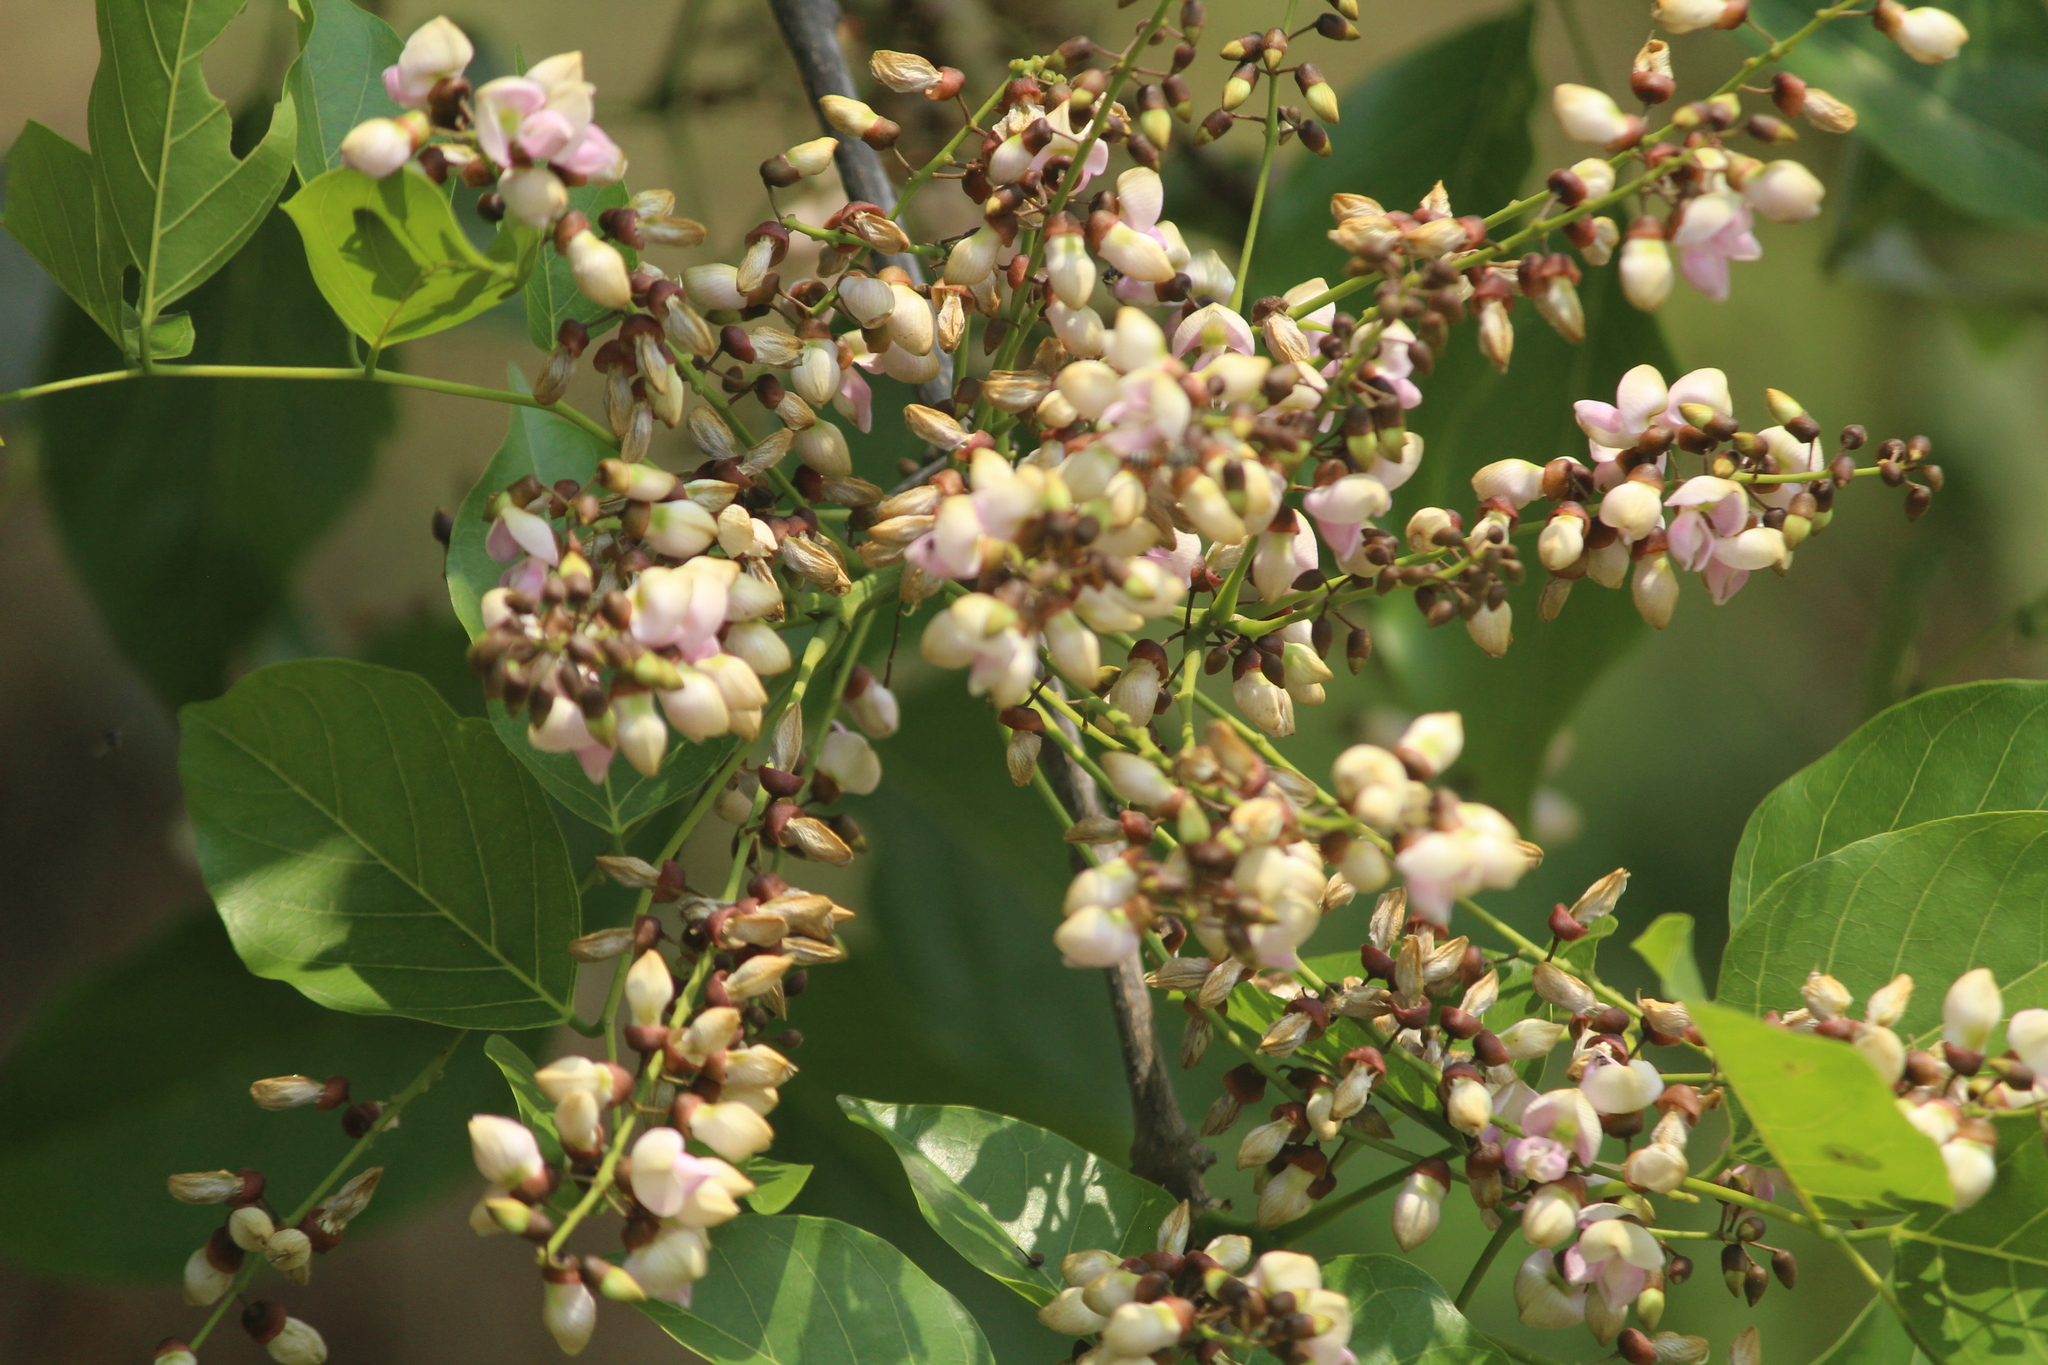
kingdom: Plantae
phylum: Tracheophyta
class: Magnoliopsida
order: Fabales
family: Fabaceae
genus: Pongamia
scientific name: Pongamia pinnata
